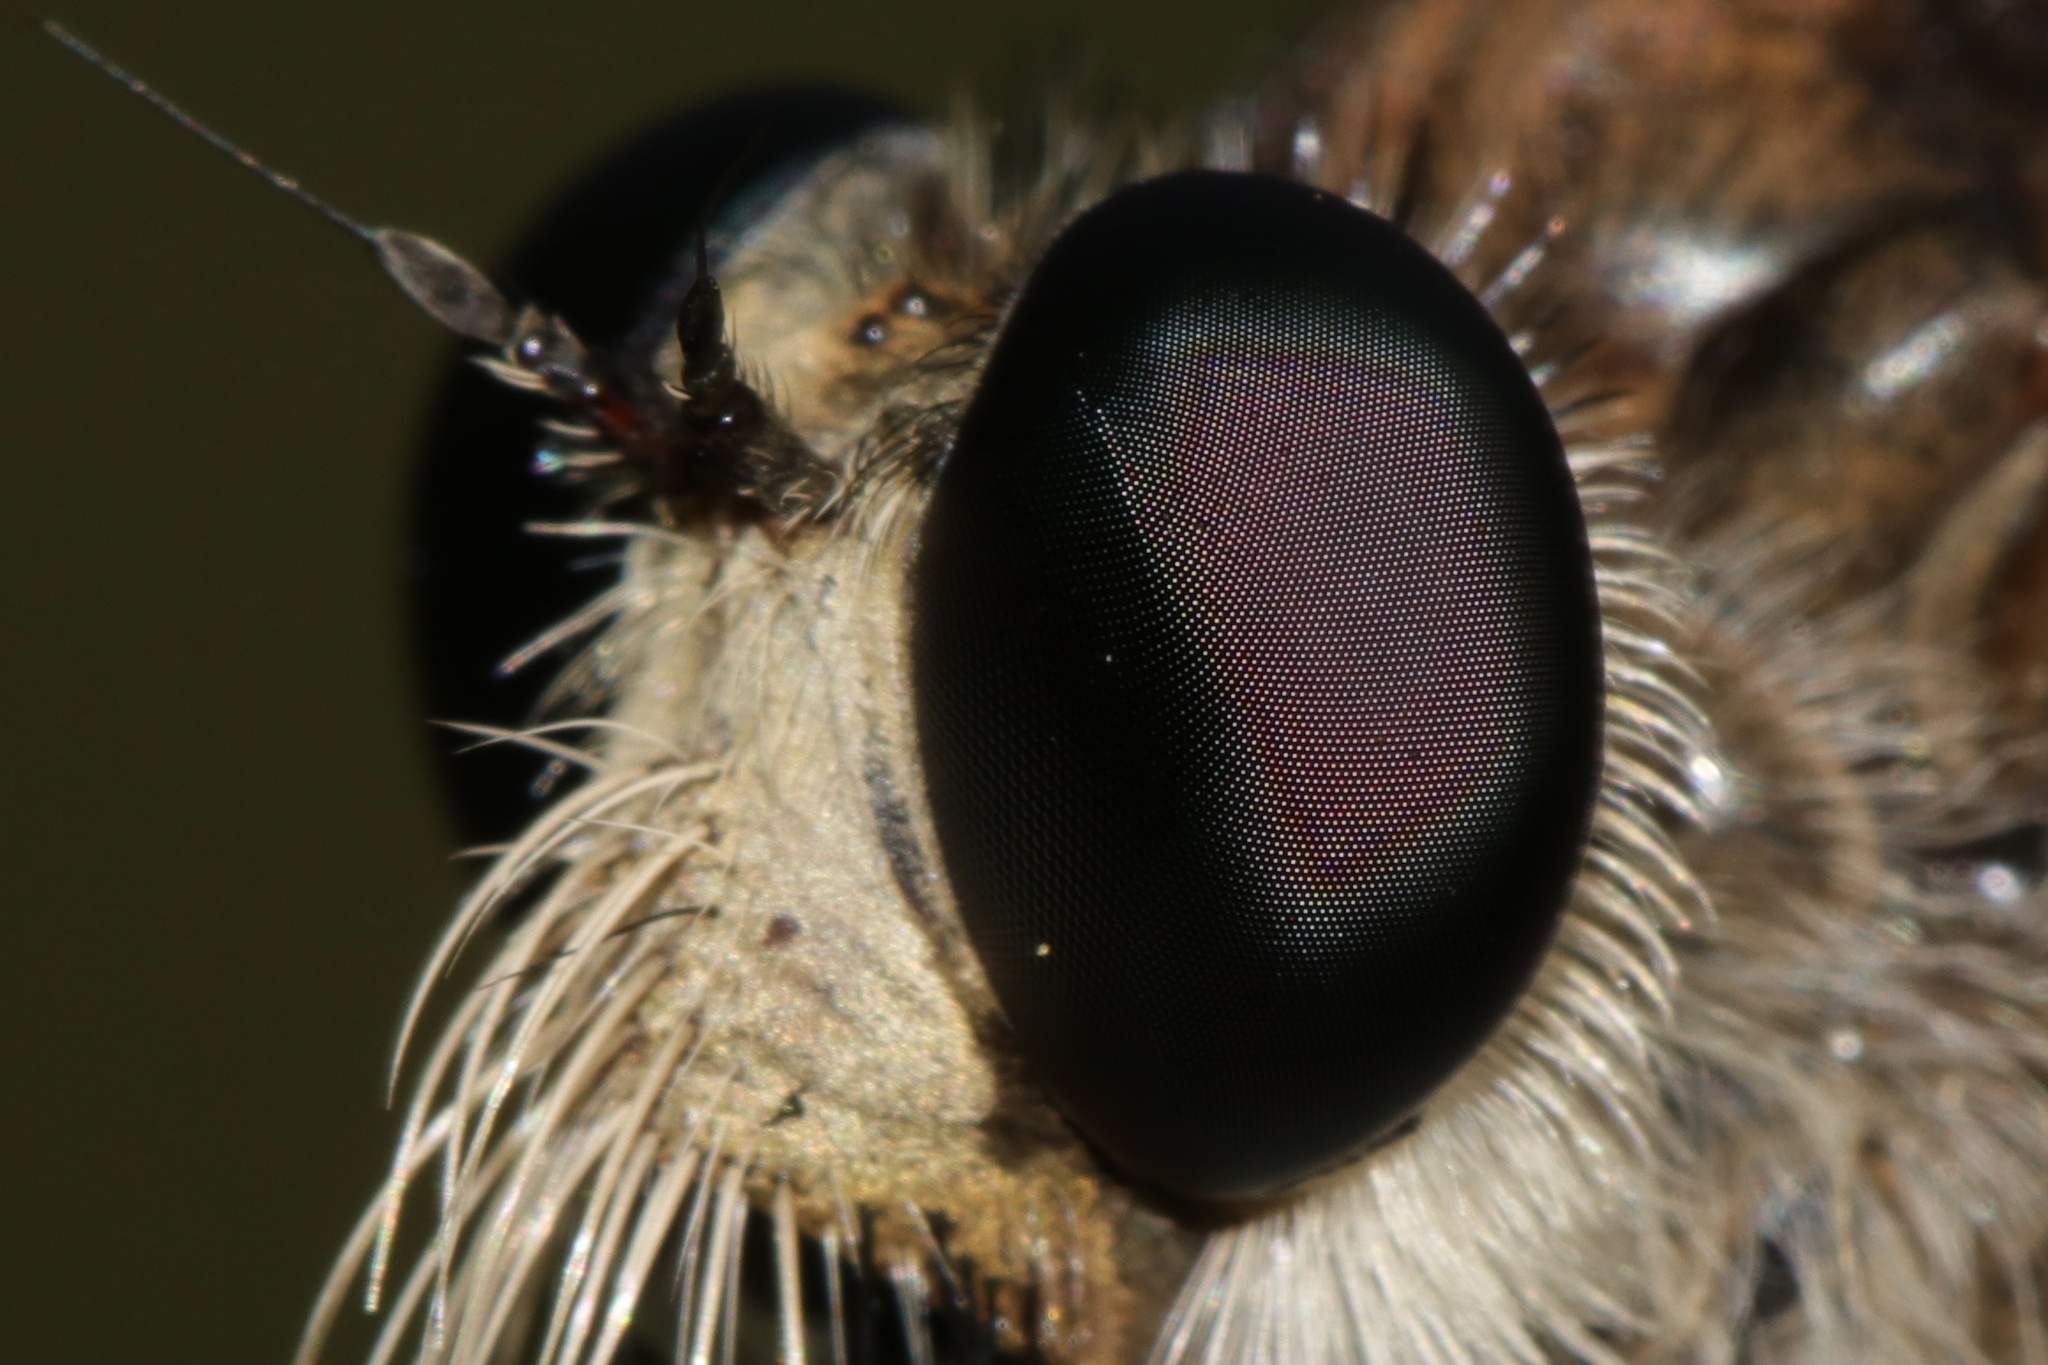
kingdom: Animalia
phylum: Arthropoda
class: Insecta
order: Diptera
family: Asilidae
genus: Promachus
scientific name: Promachus hinei
